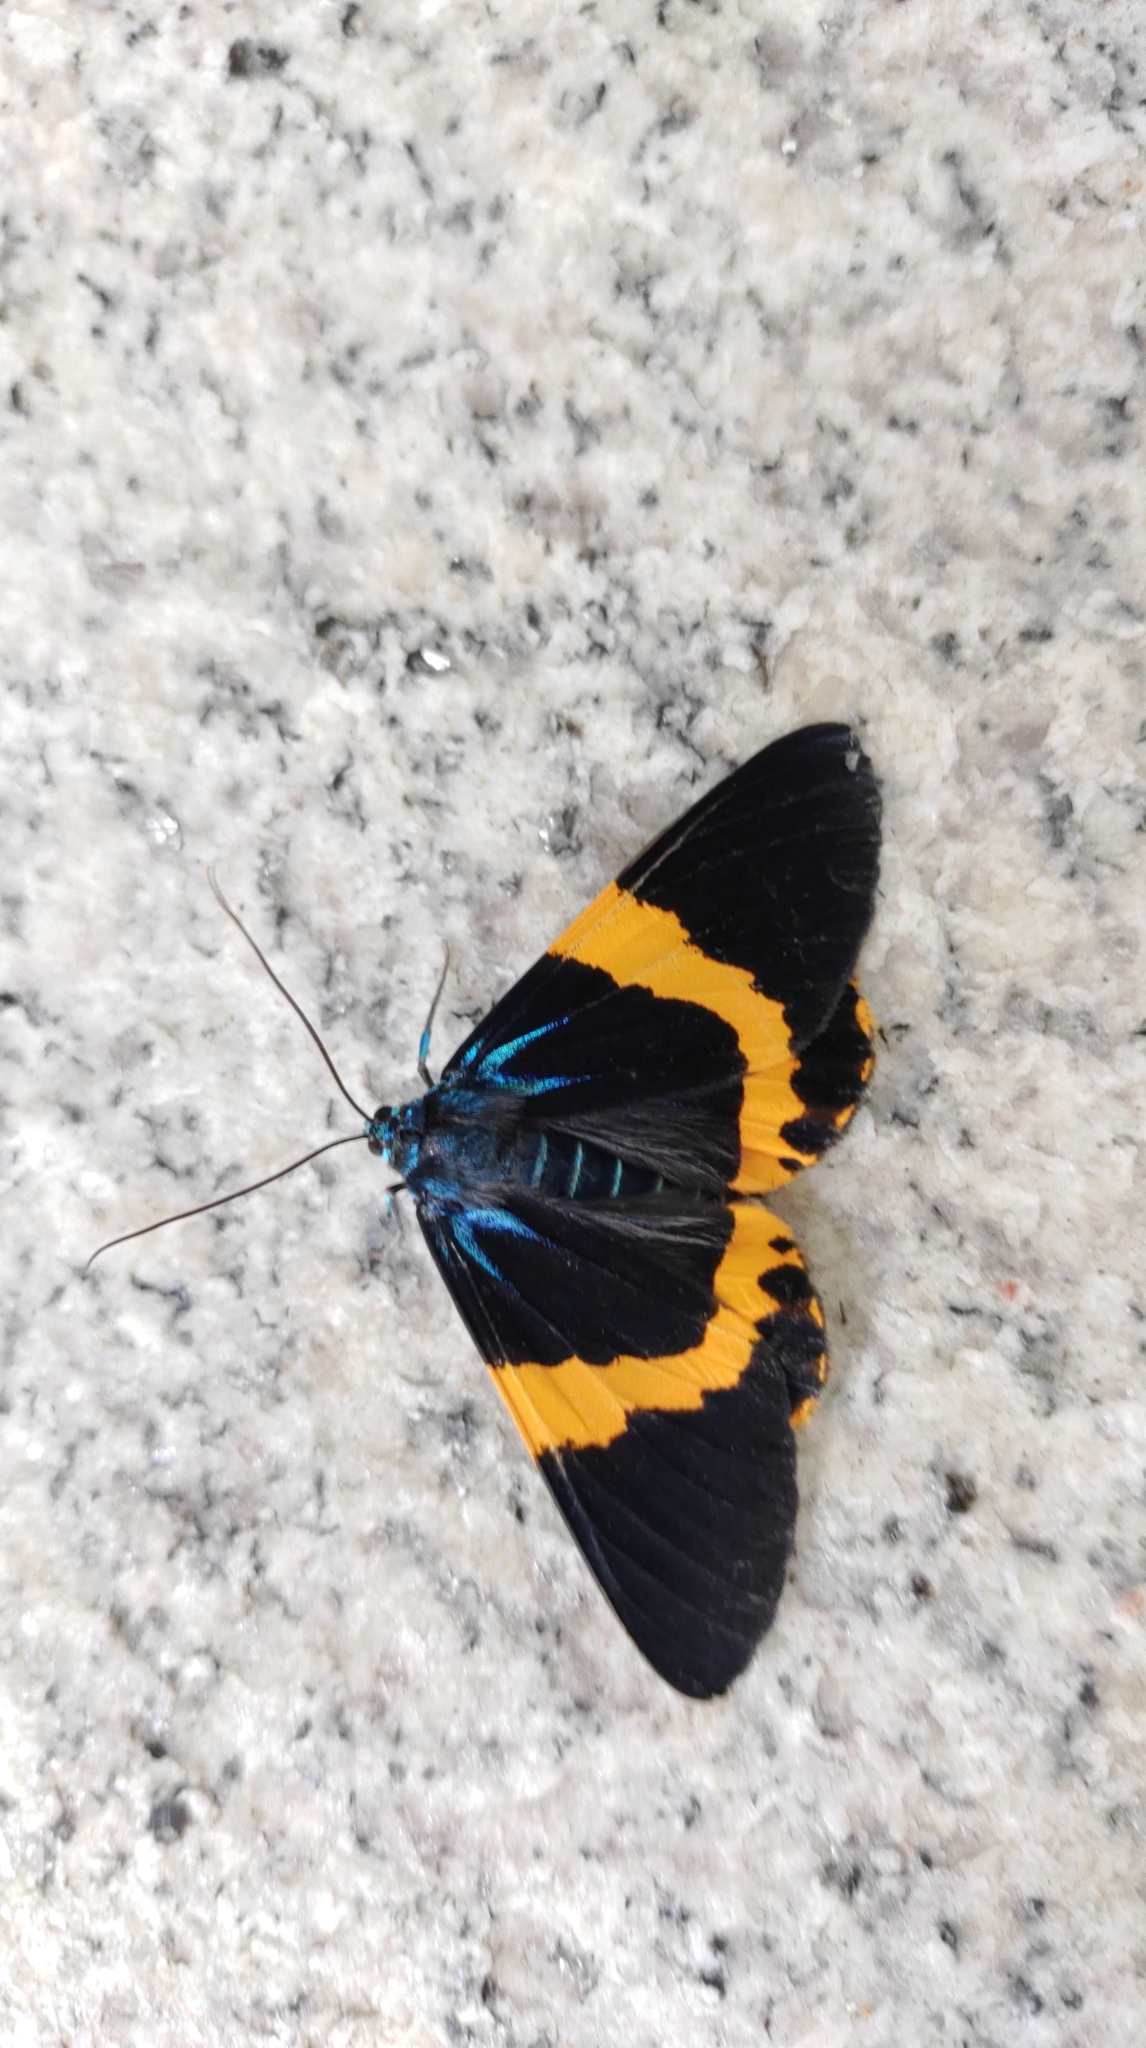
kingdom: Animalia
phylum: Arthropoda
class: Insecta
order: Lepidoptera
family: Geometridae
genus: Milionia
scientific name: Milionia basalis
